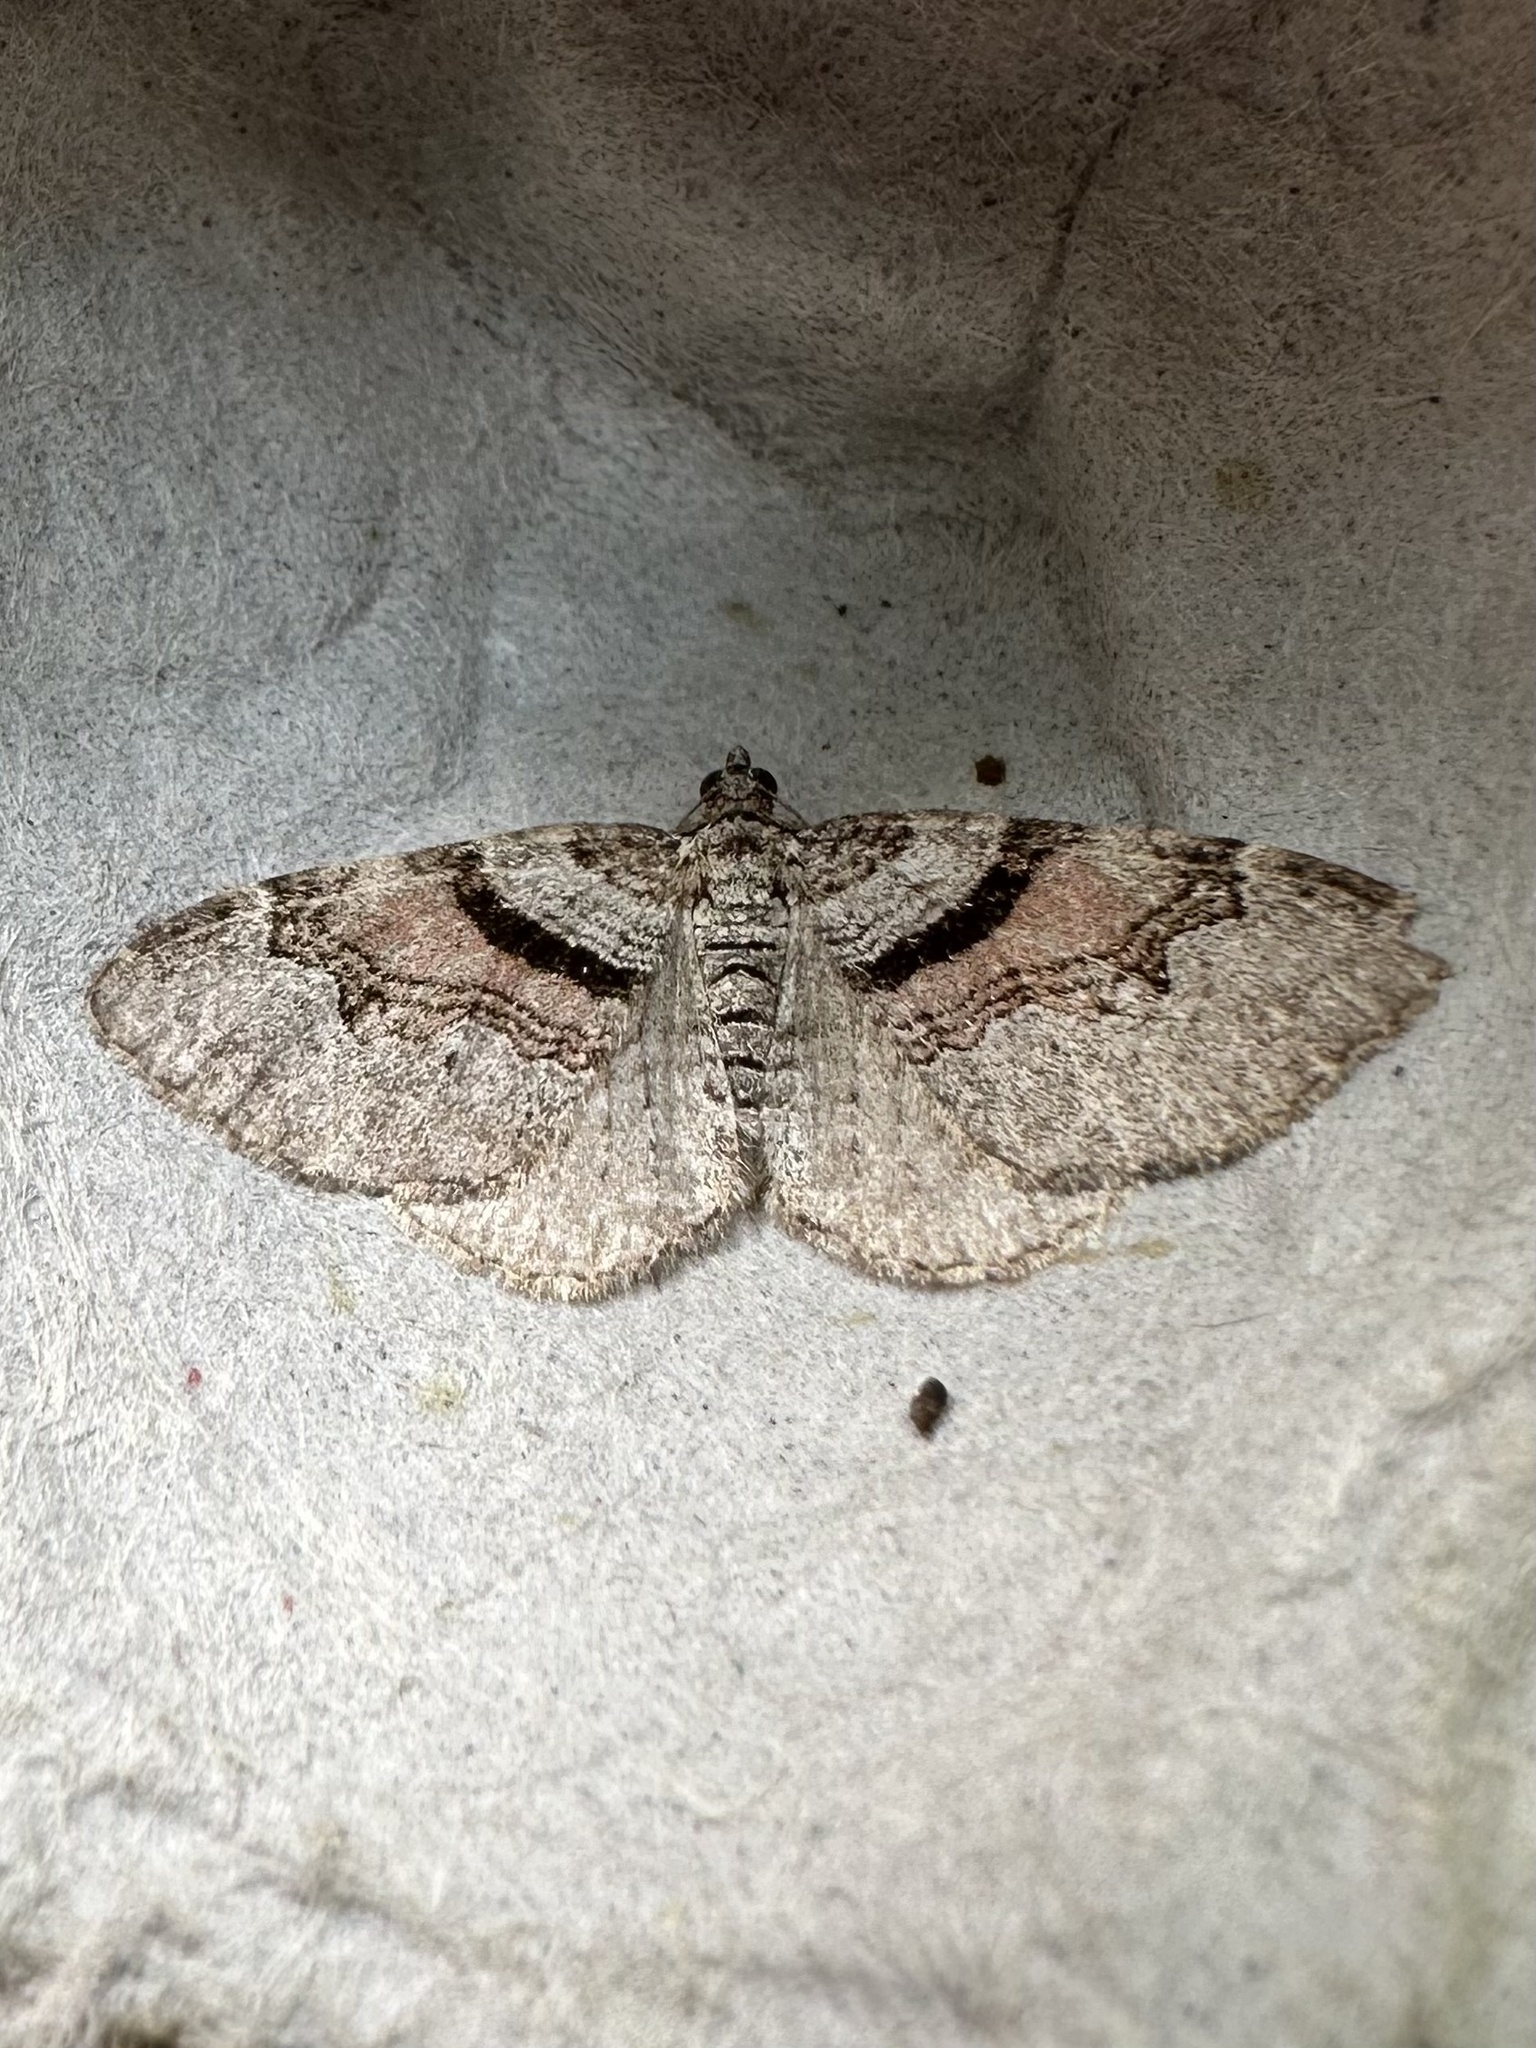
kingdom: Animalia
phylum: Arthropoda
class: Insecta
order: Lepidoptera
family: Geometridae
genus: Xanthorhoe
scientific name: Xanthorhoe labradorensis
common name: Labrador carpet
